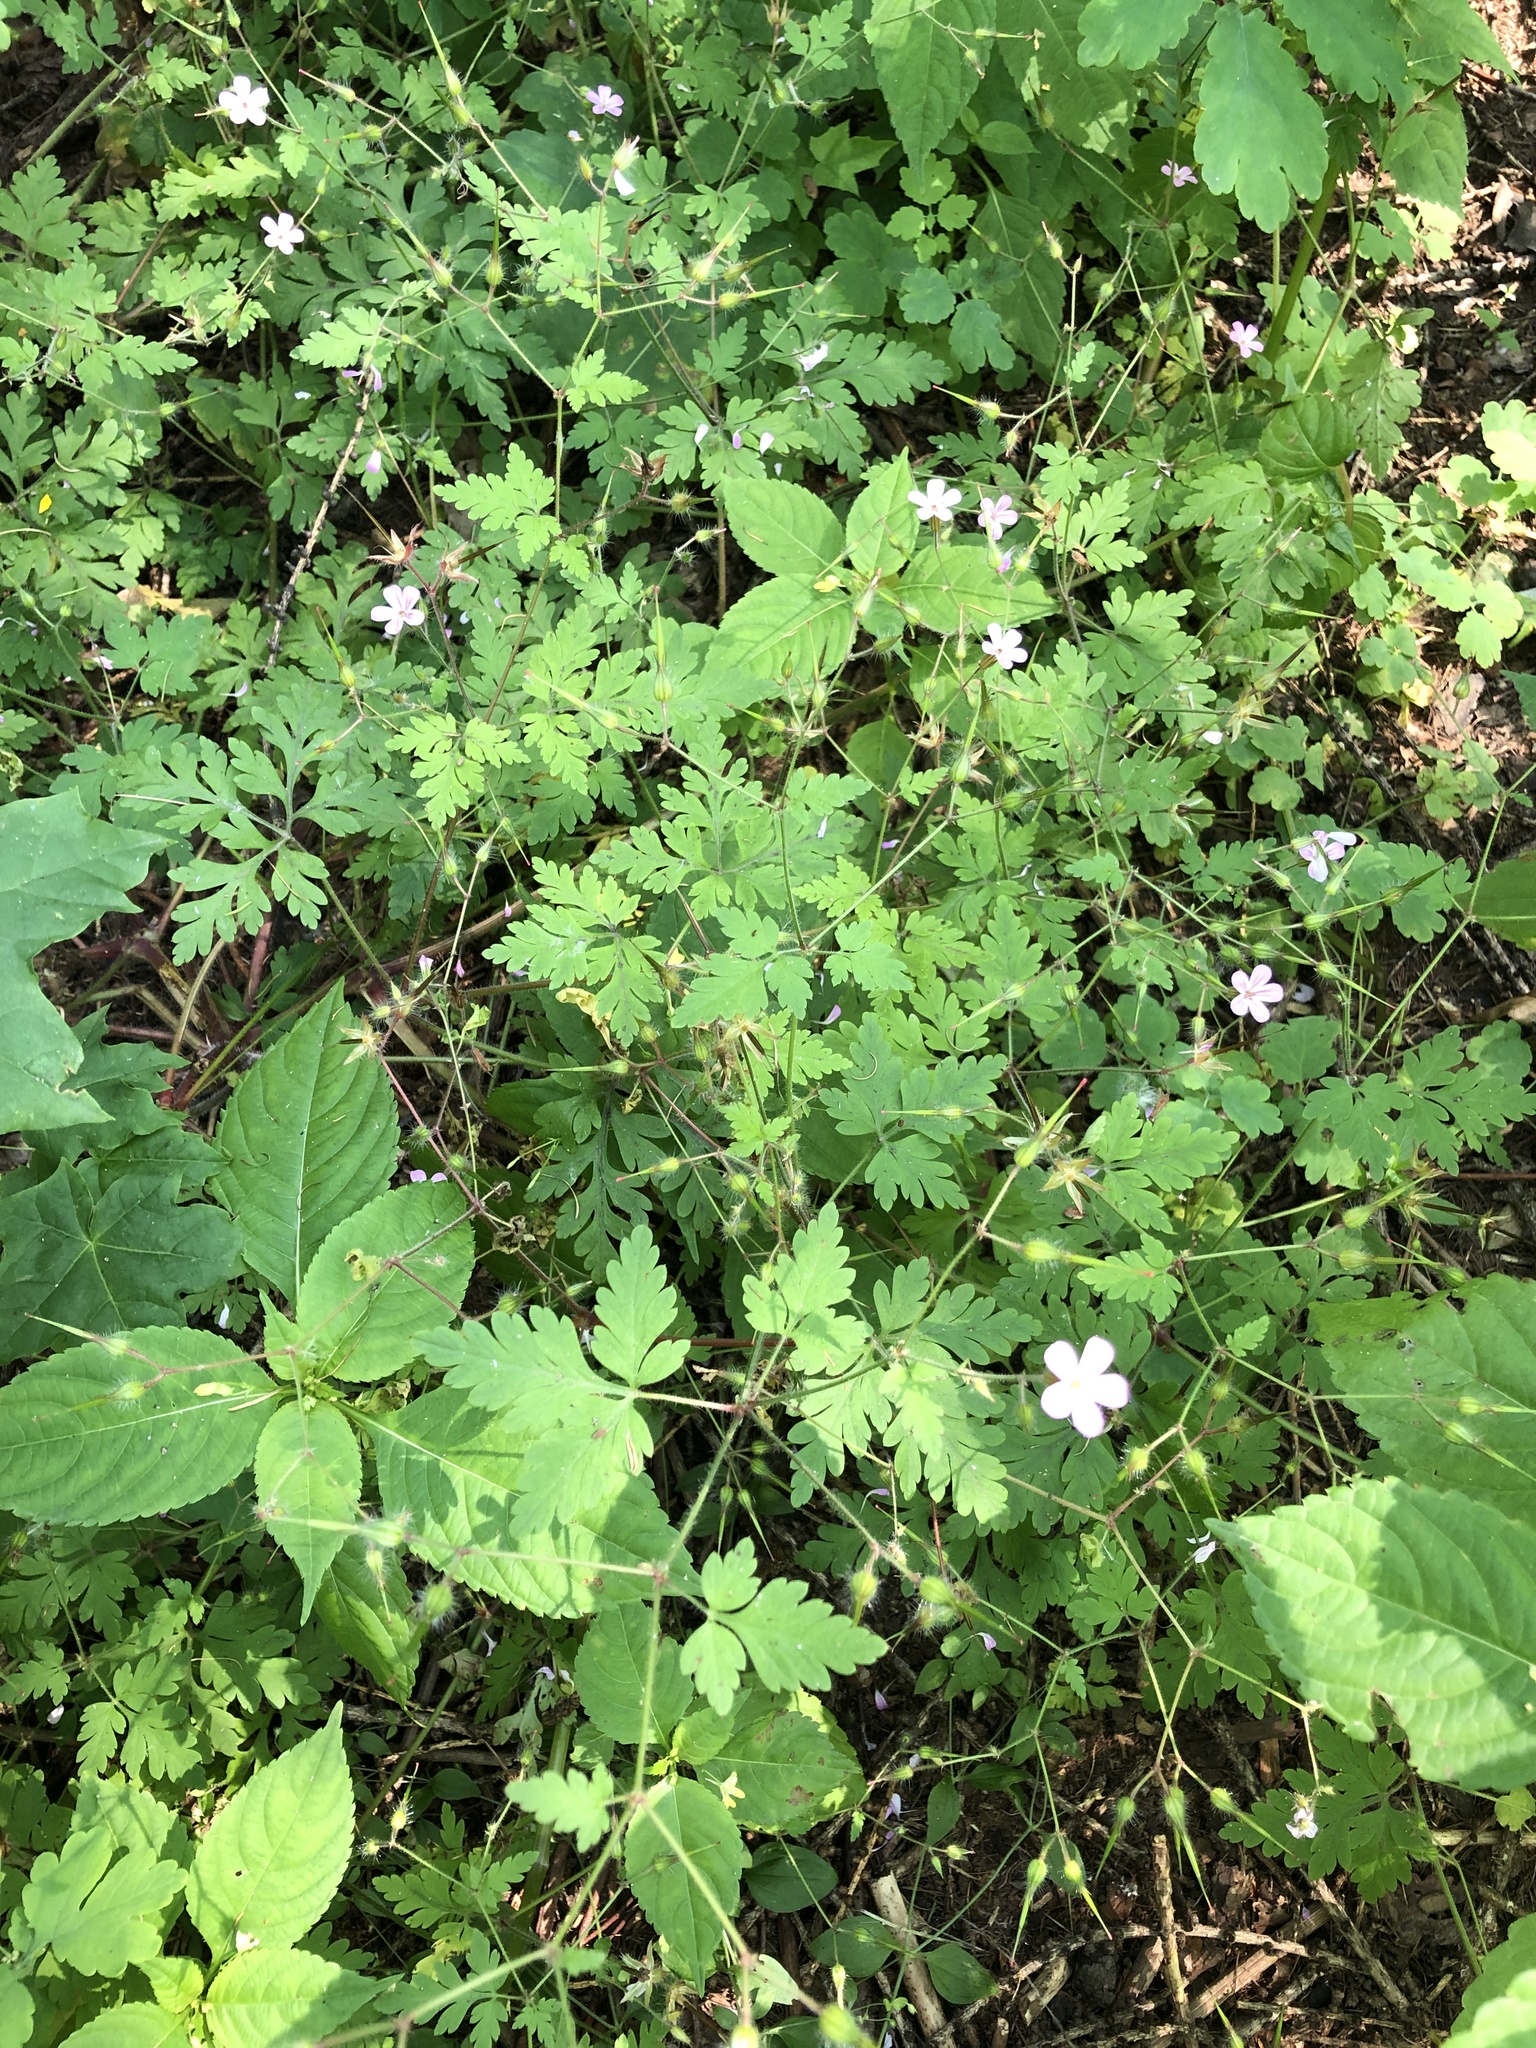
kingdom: Plantae
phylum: Tracheophyta
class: Magnoliopsida
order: Geraniales
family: Geraniaceae
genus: Geranium
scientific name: Geranium robertianum
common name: Herb-robert
